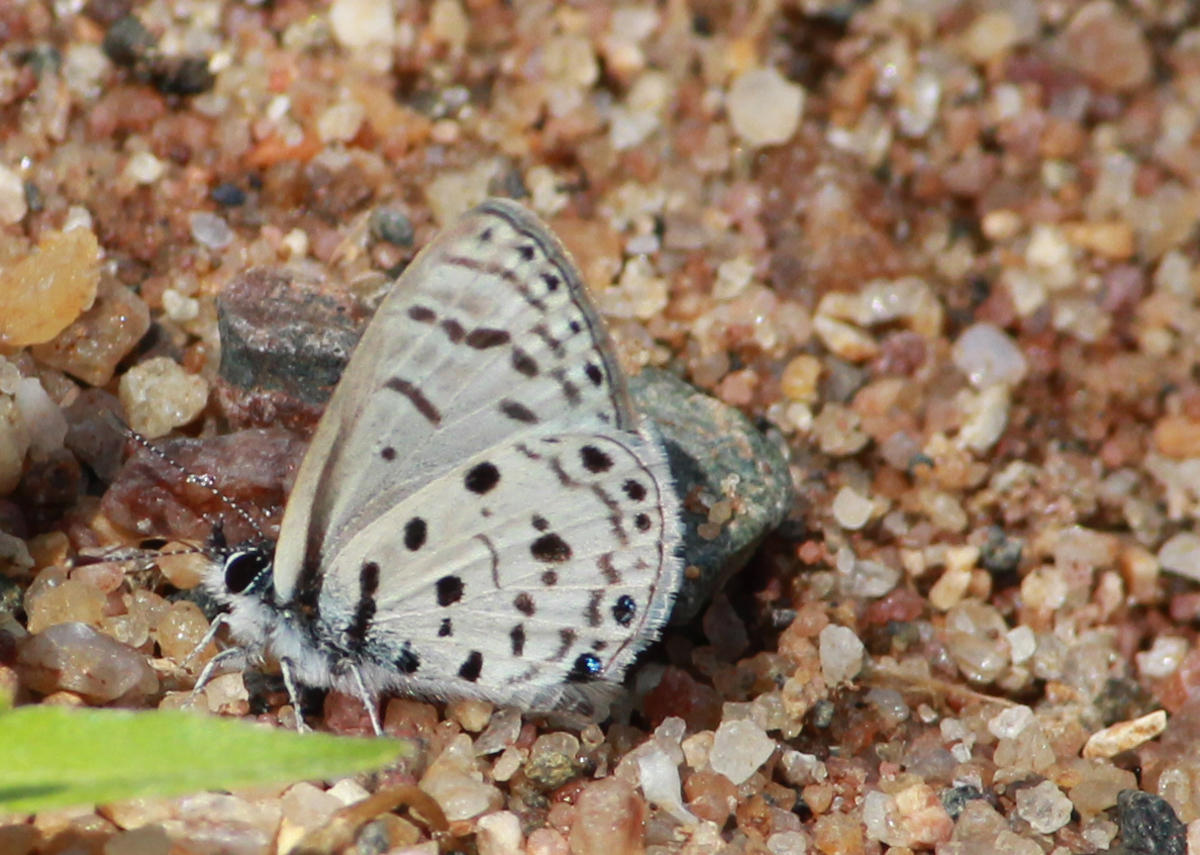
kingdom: Animalia
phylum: Arthropoda
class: Insecta
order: Lepidoptera
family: Lycaenidae
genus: Azanus
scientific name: Azanus moriqua
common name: Thorn-tree babul blue
